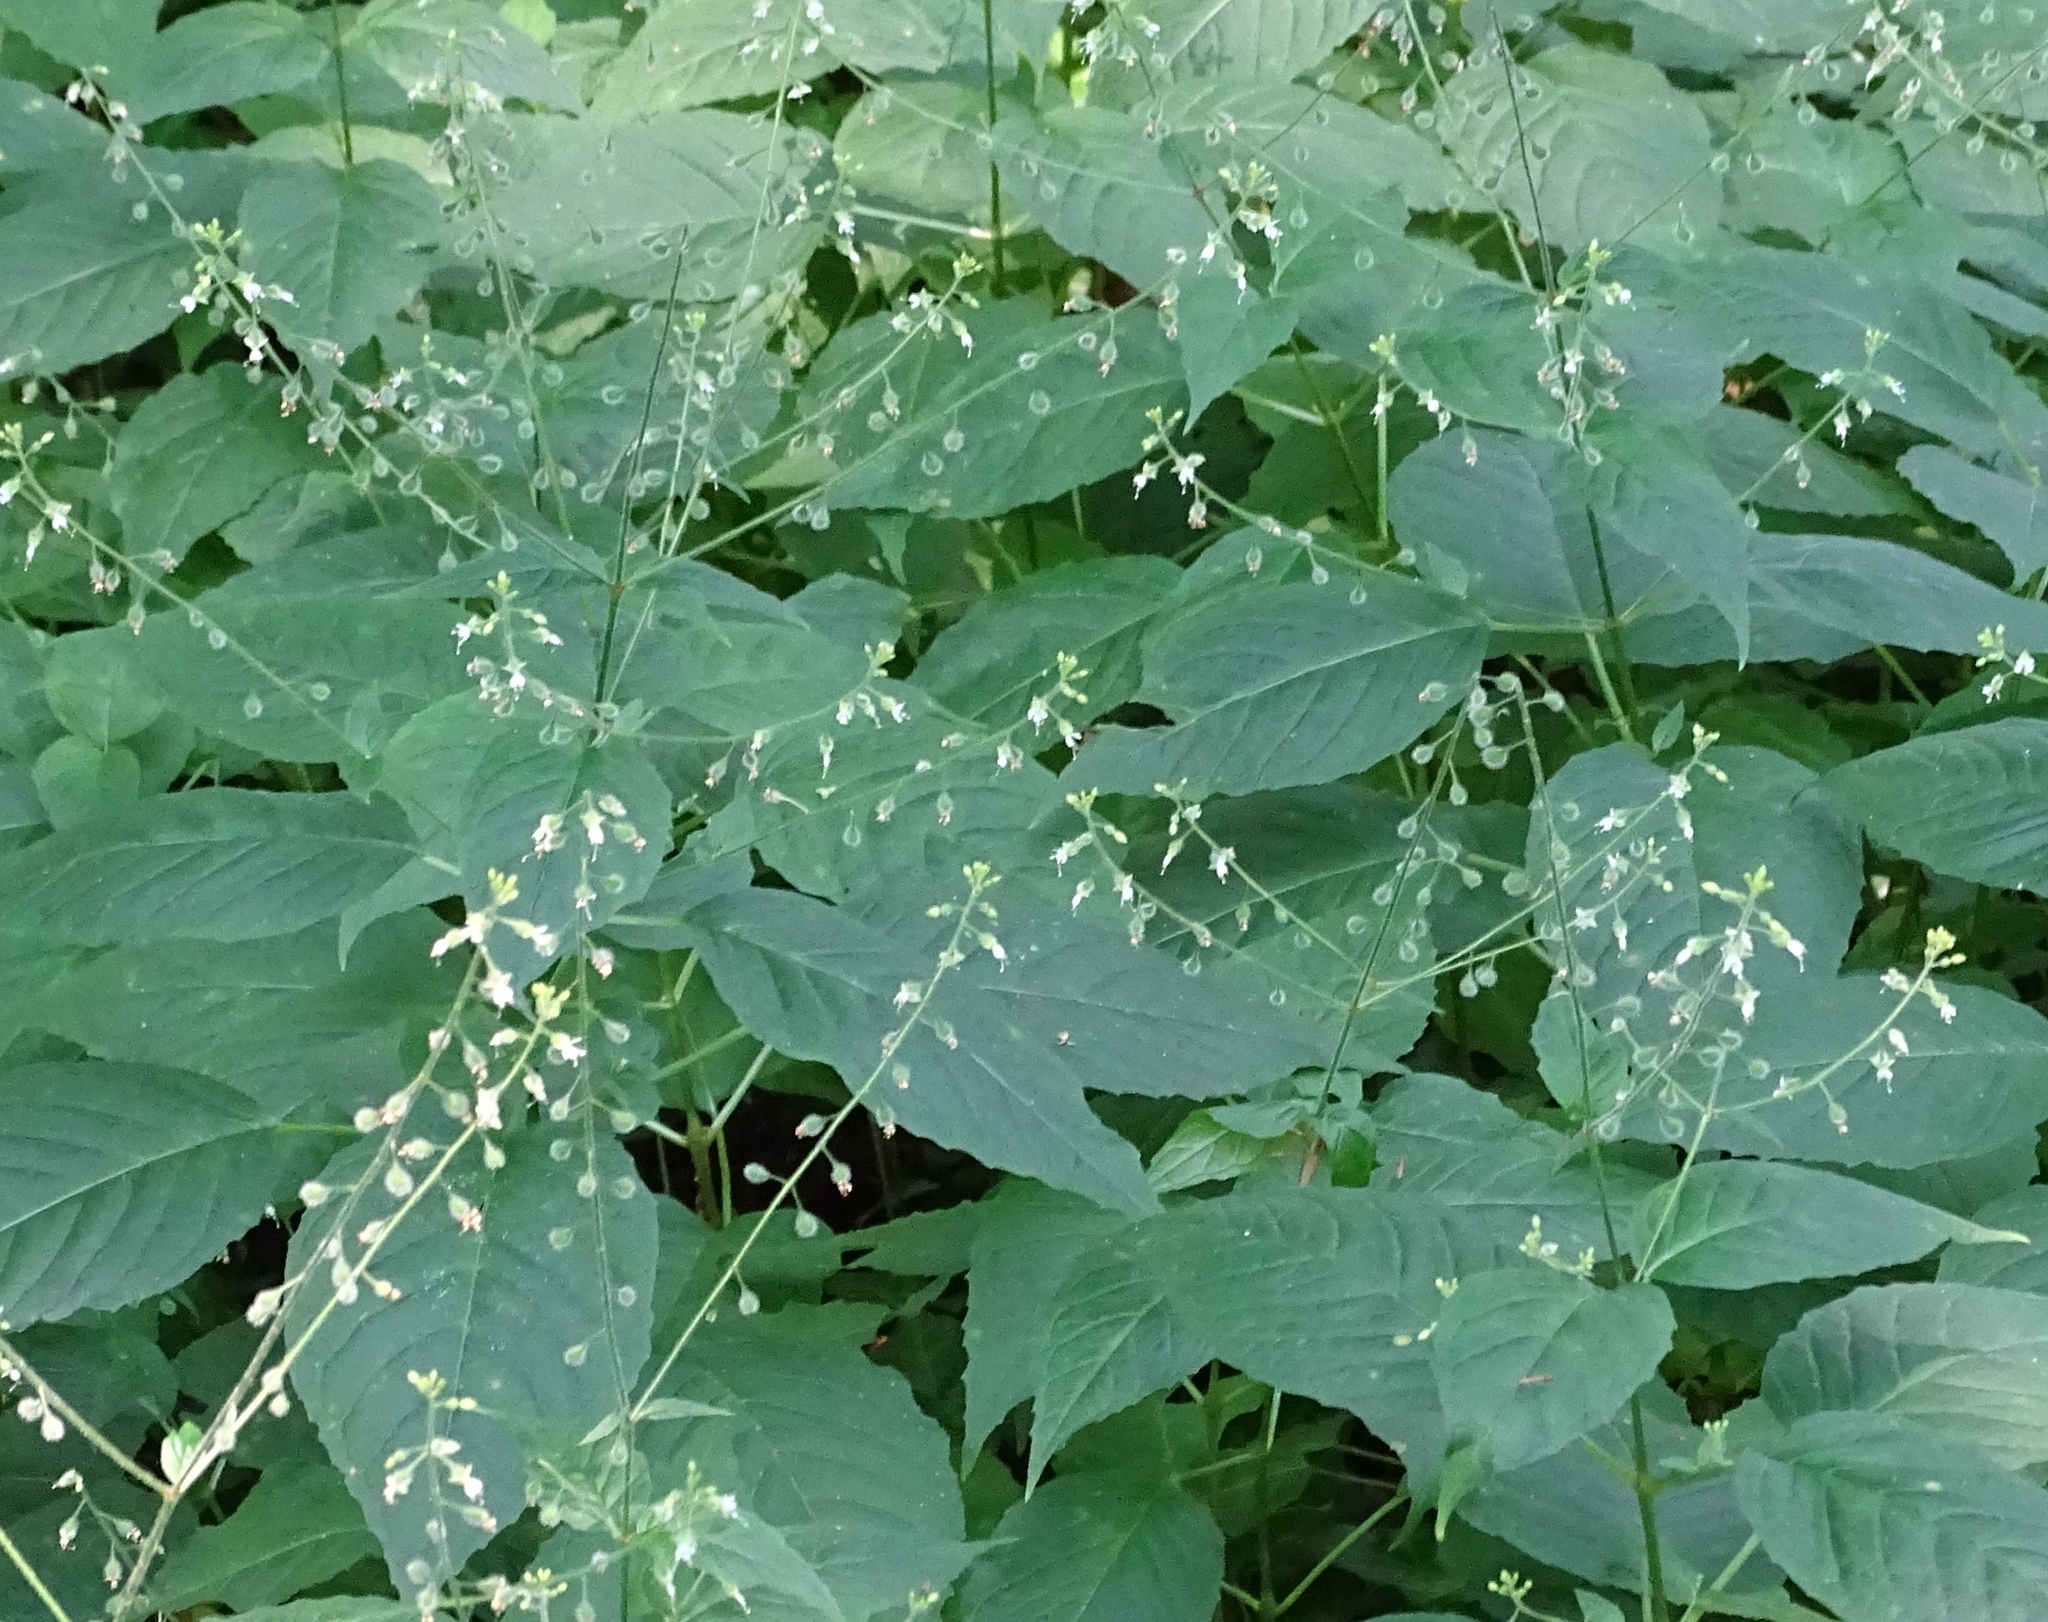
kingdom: Plantae
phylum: Tracheophyta
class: Magnoliopsida
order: Myrtales
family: Onagraceae
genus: Circaea
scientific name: Circaea canadensis
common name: Broad-leaved enchanter's nightshade
